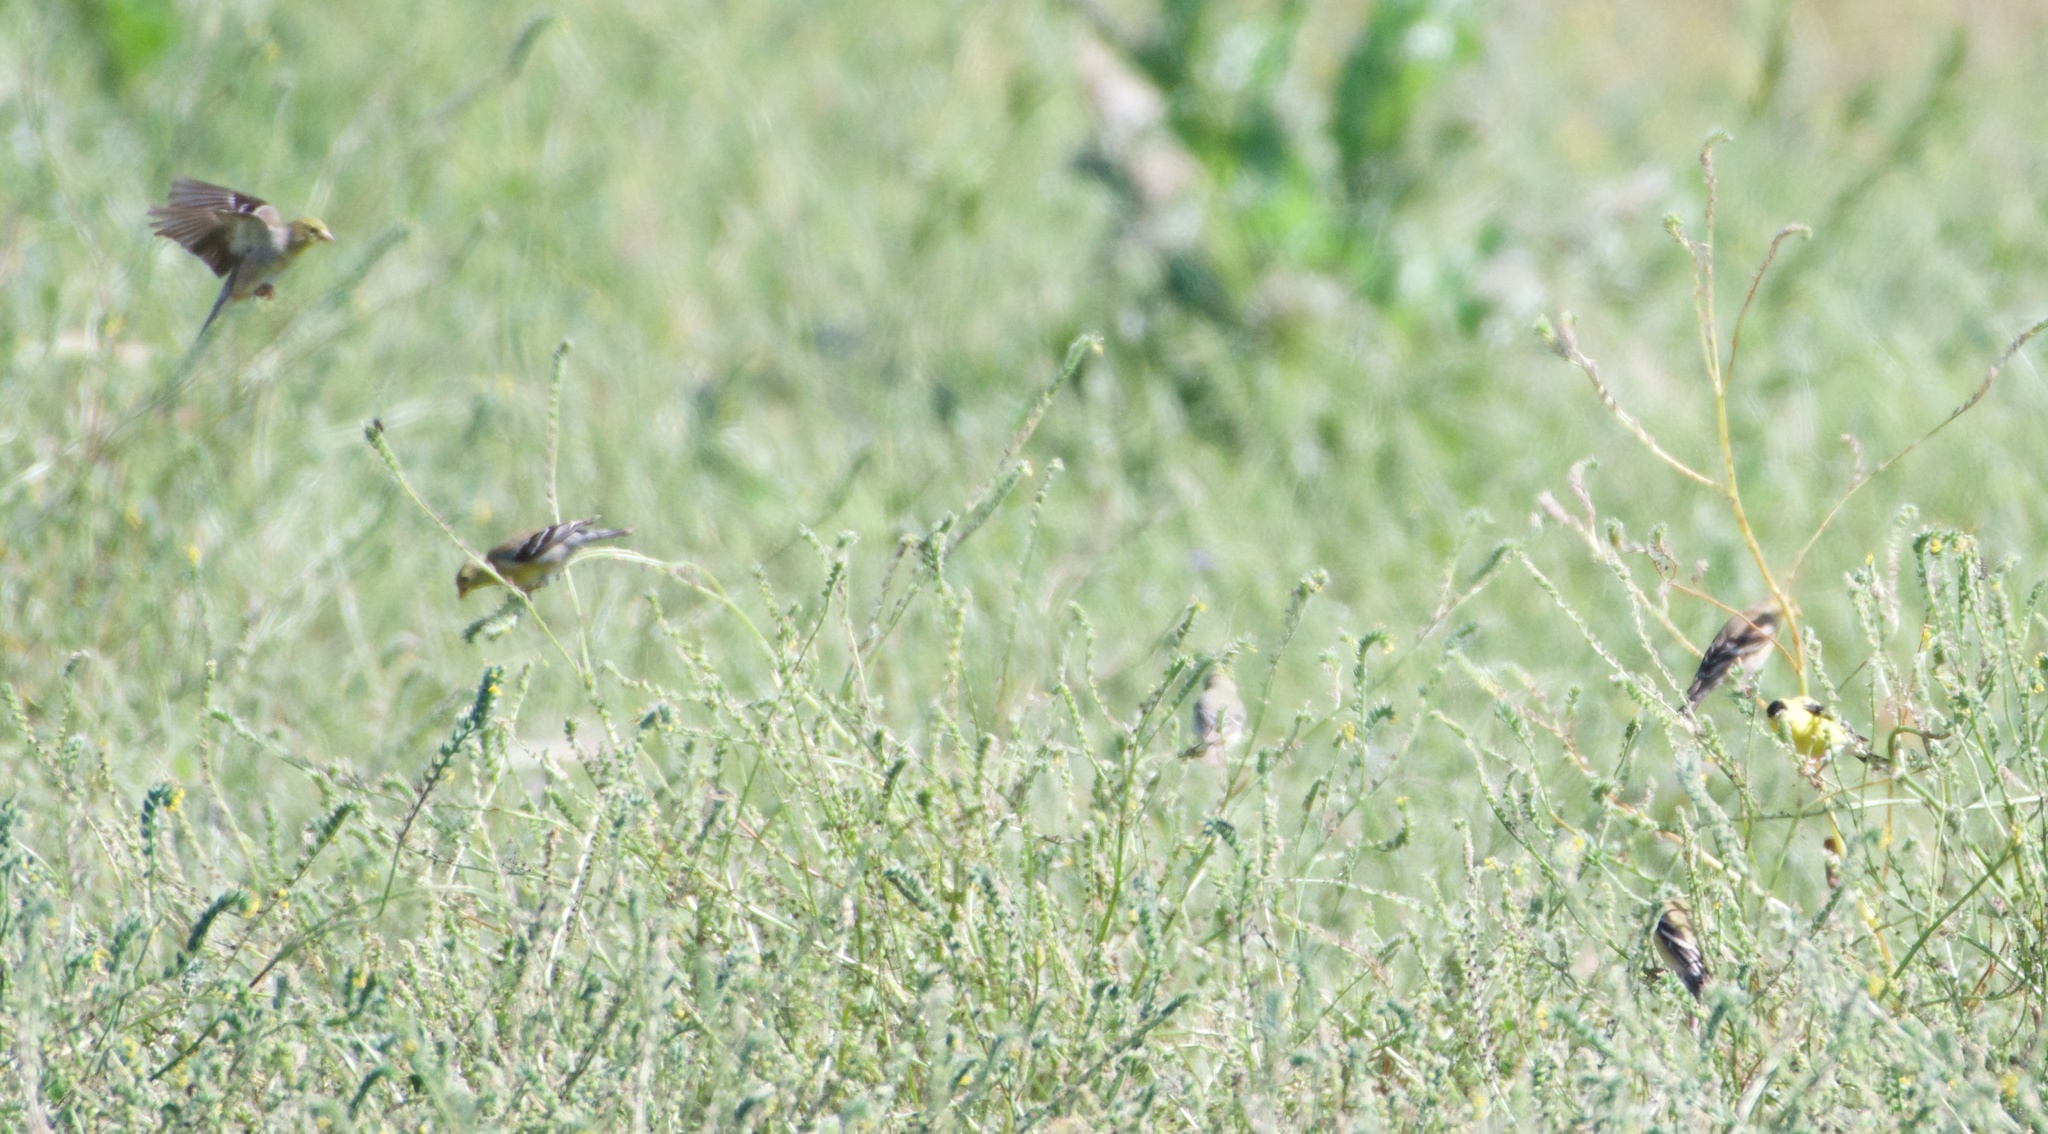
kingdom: Animalia
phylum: Chordata
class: Aves
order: Passeriformes
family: Fringillidae
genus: Spinus
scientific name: Spinus psaltria
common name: Lesser goldfinch
